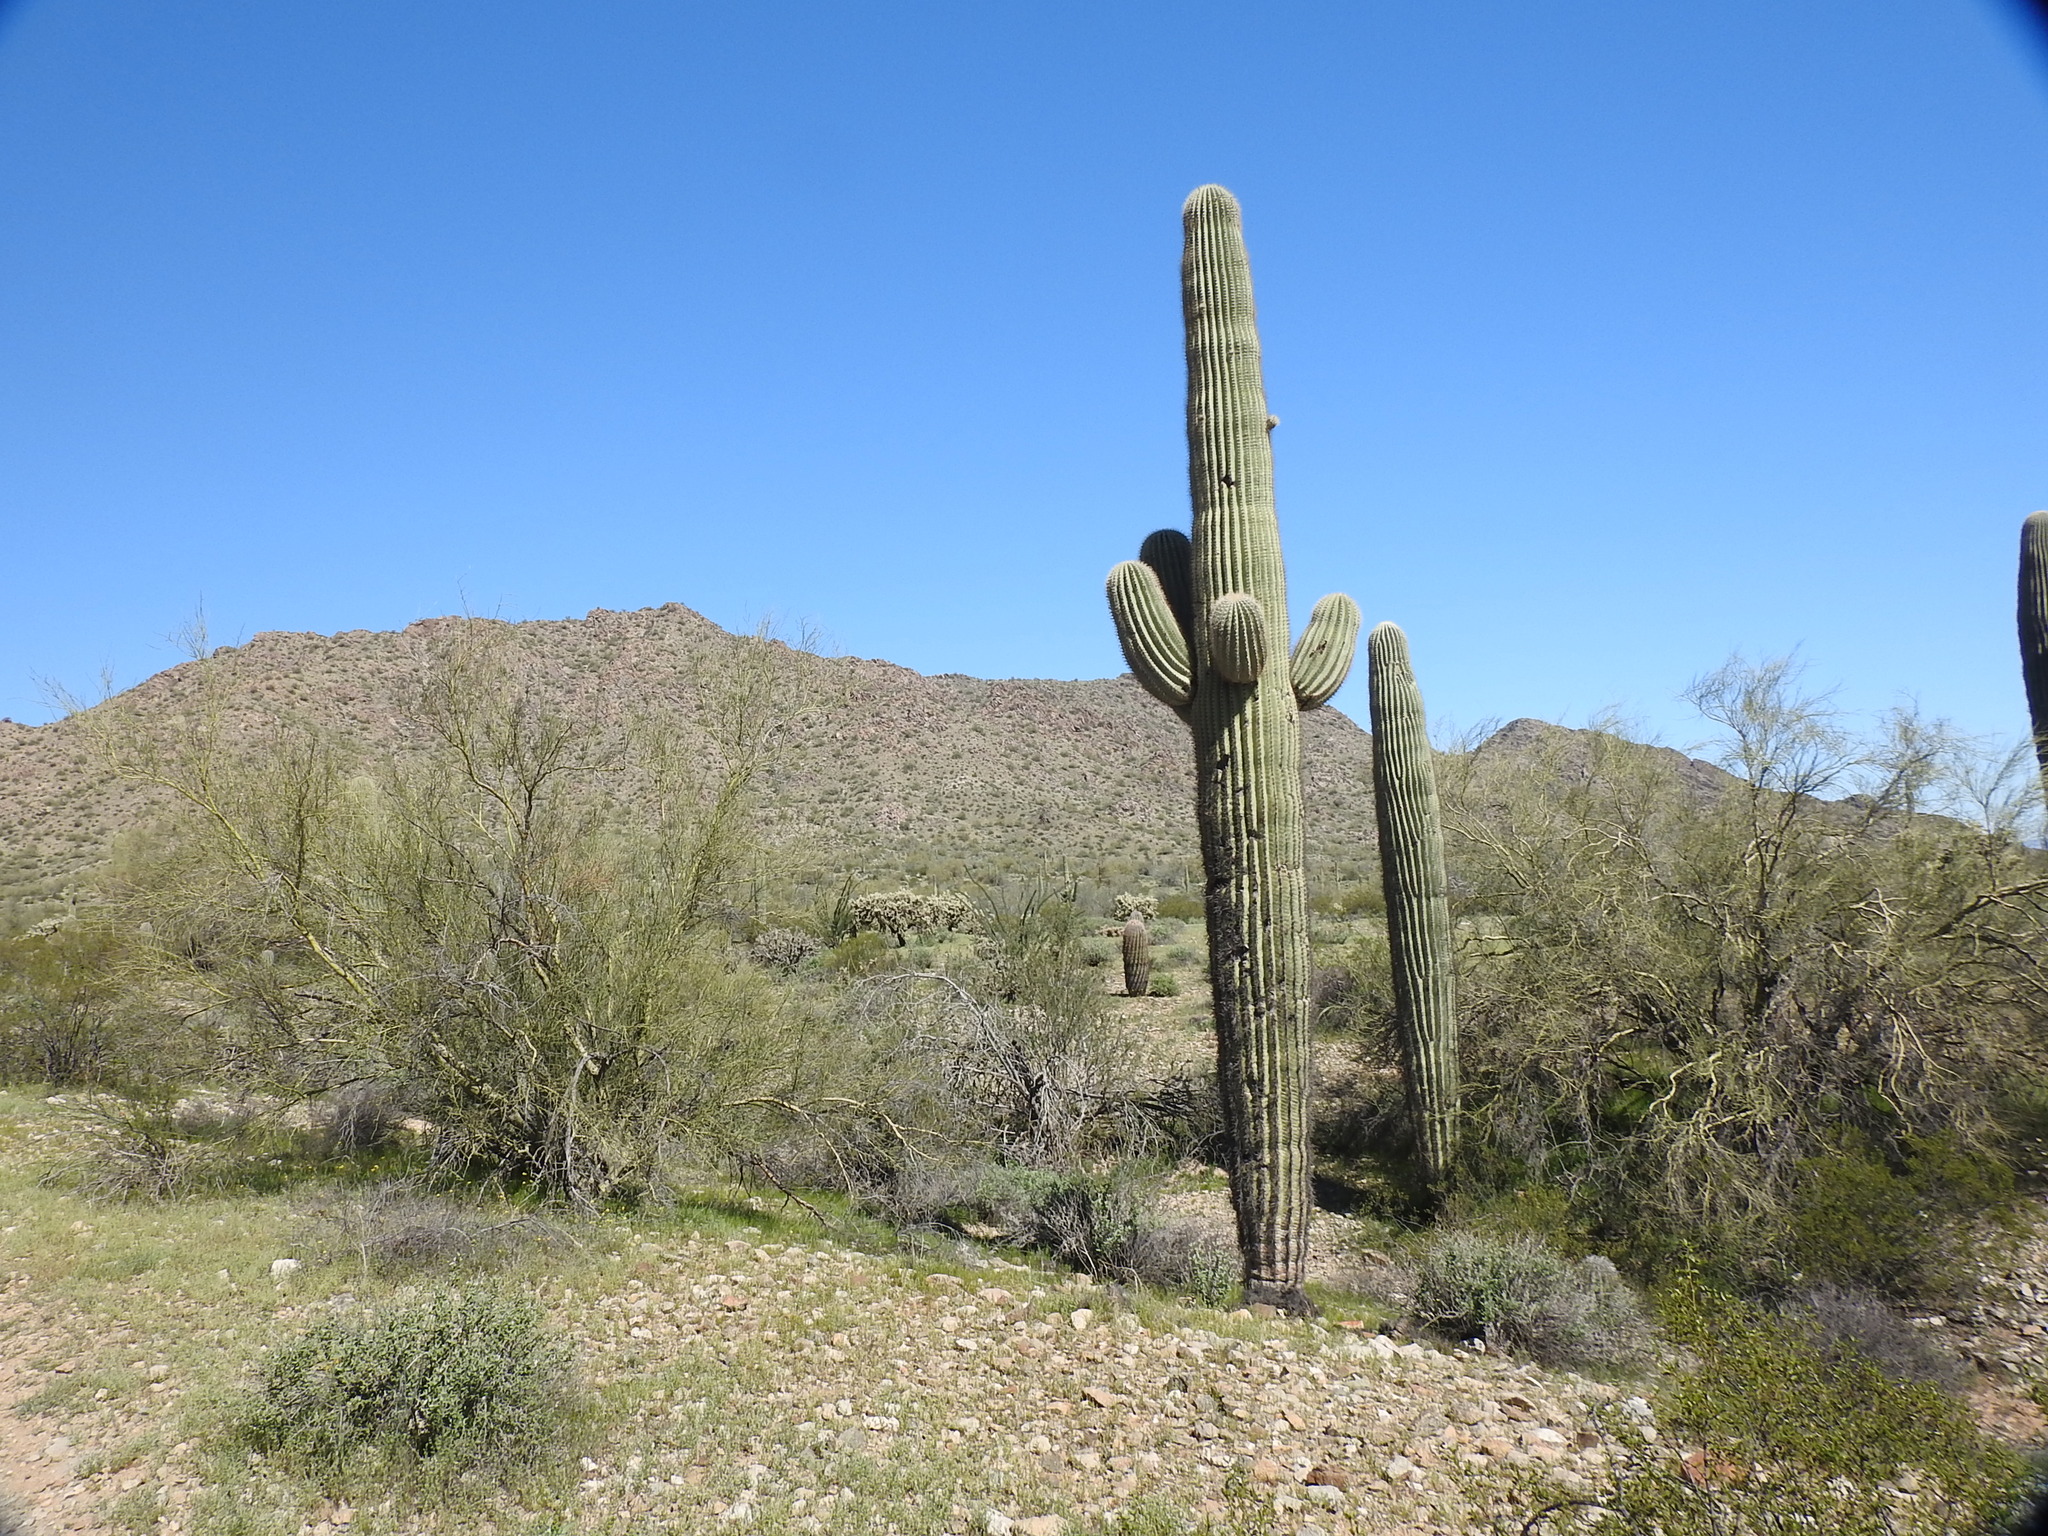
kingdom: Plantae
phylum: Tracheophyta
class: Magnoliopsida
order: Caryophyllales
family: Cactaceae
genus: Carnegiea
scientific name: Carnegiea gigantea
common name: Saguaro
